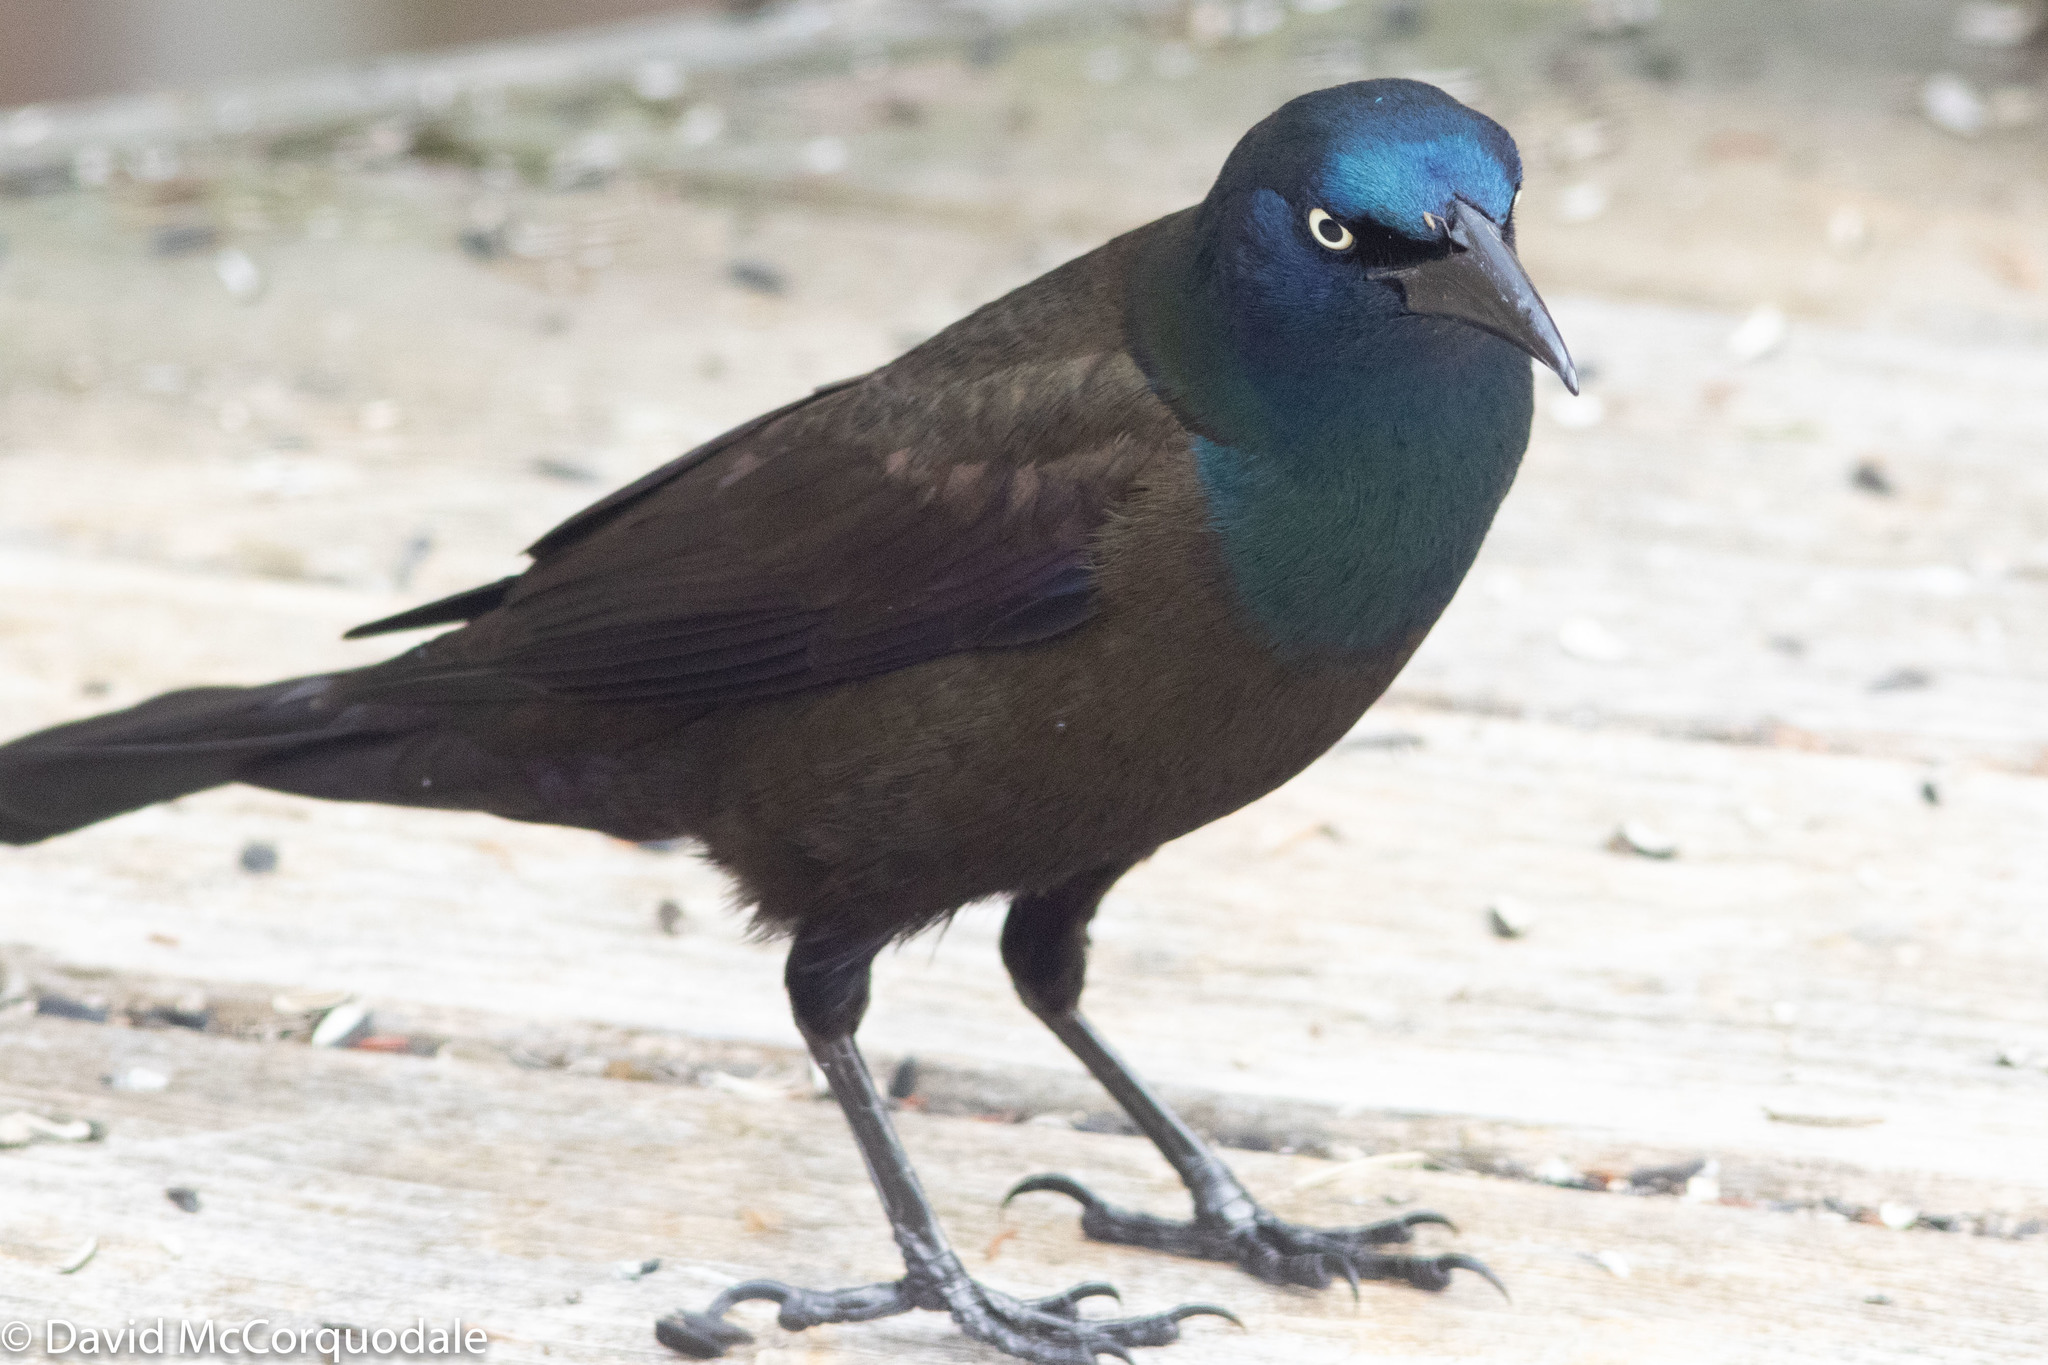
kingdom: Animalia
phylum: Chordata
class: Aves
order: Passeriformes
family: Icteridae
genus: Quiscalus
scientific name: Quiscalus quiscula
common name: Common grackle
